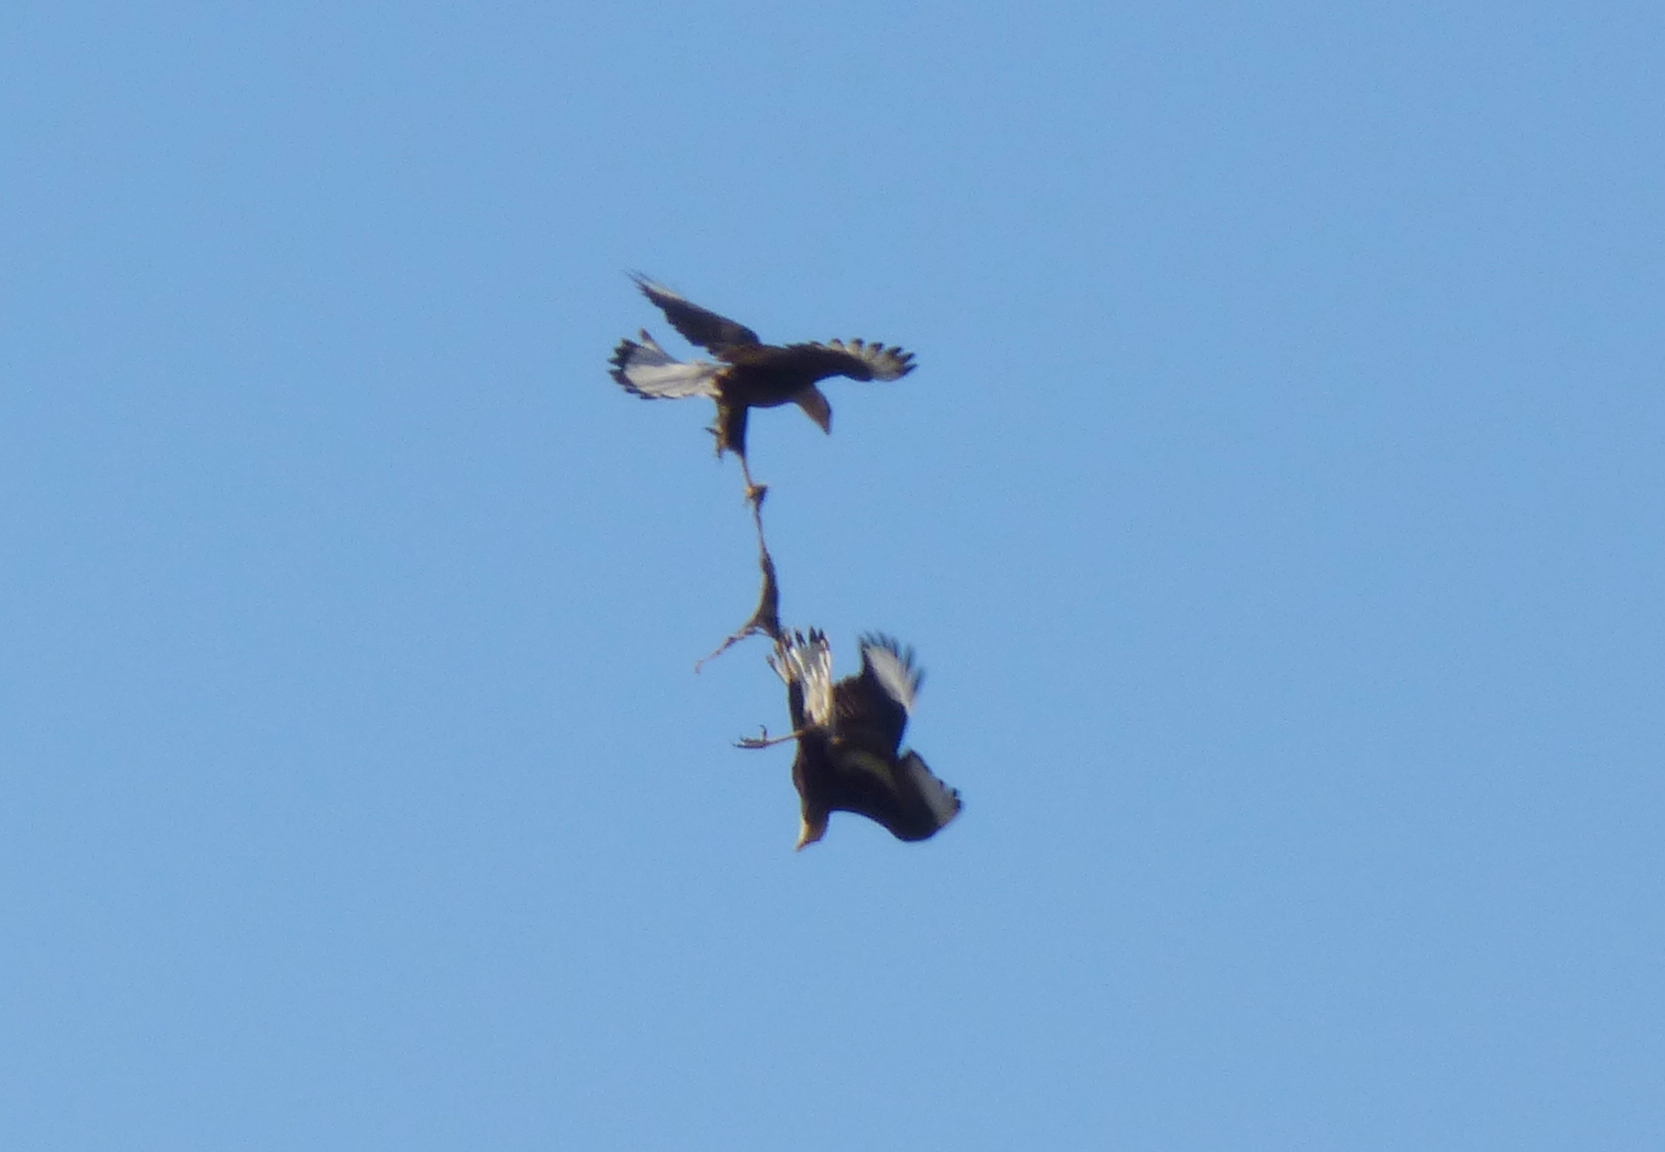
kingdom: Animalia
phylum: Chordata
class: Aves
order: Falconiformes
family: Falconidae
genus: Caracara
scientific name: Caracara plancus
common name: Southern caracara
